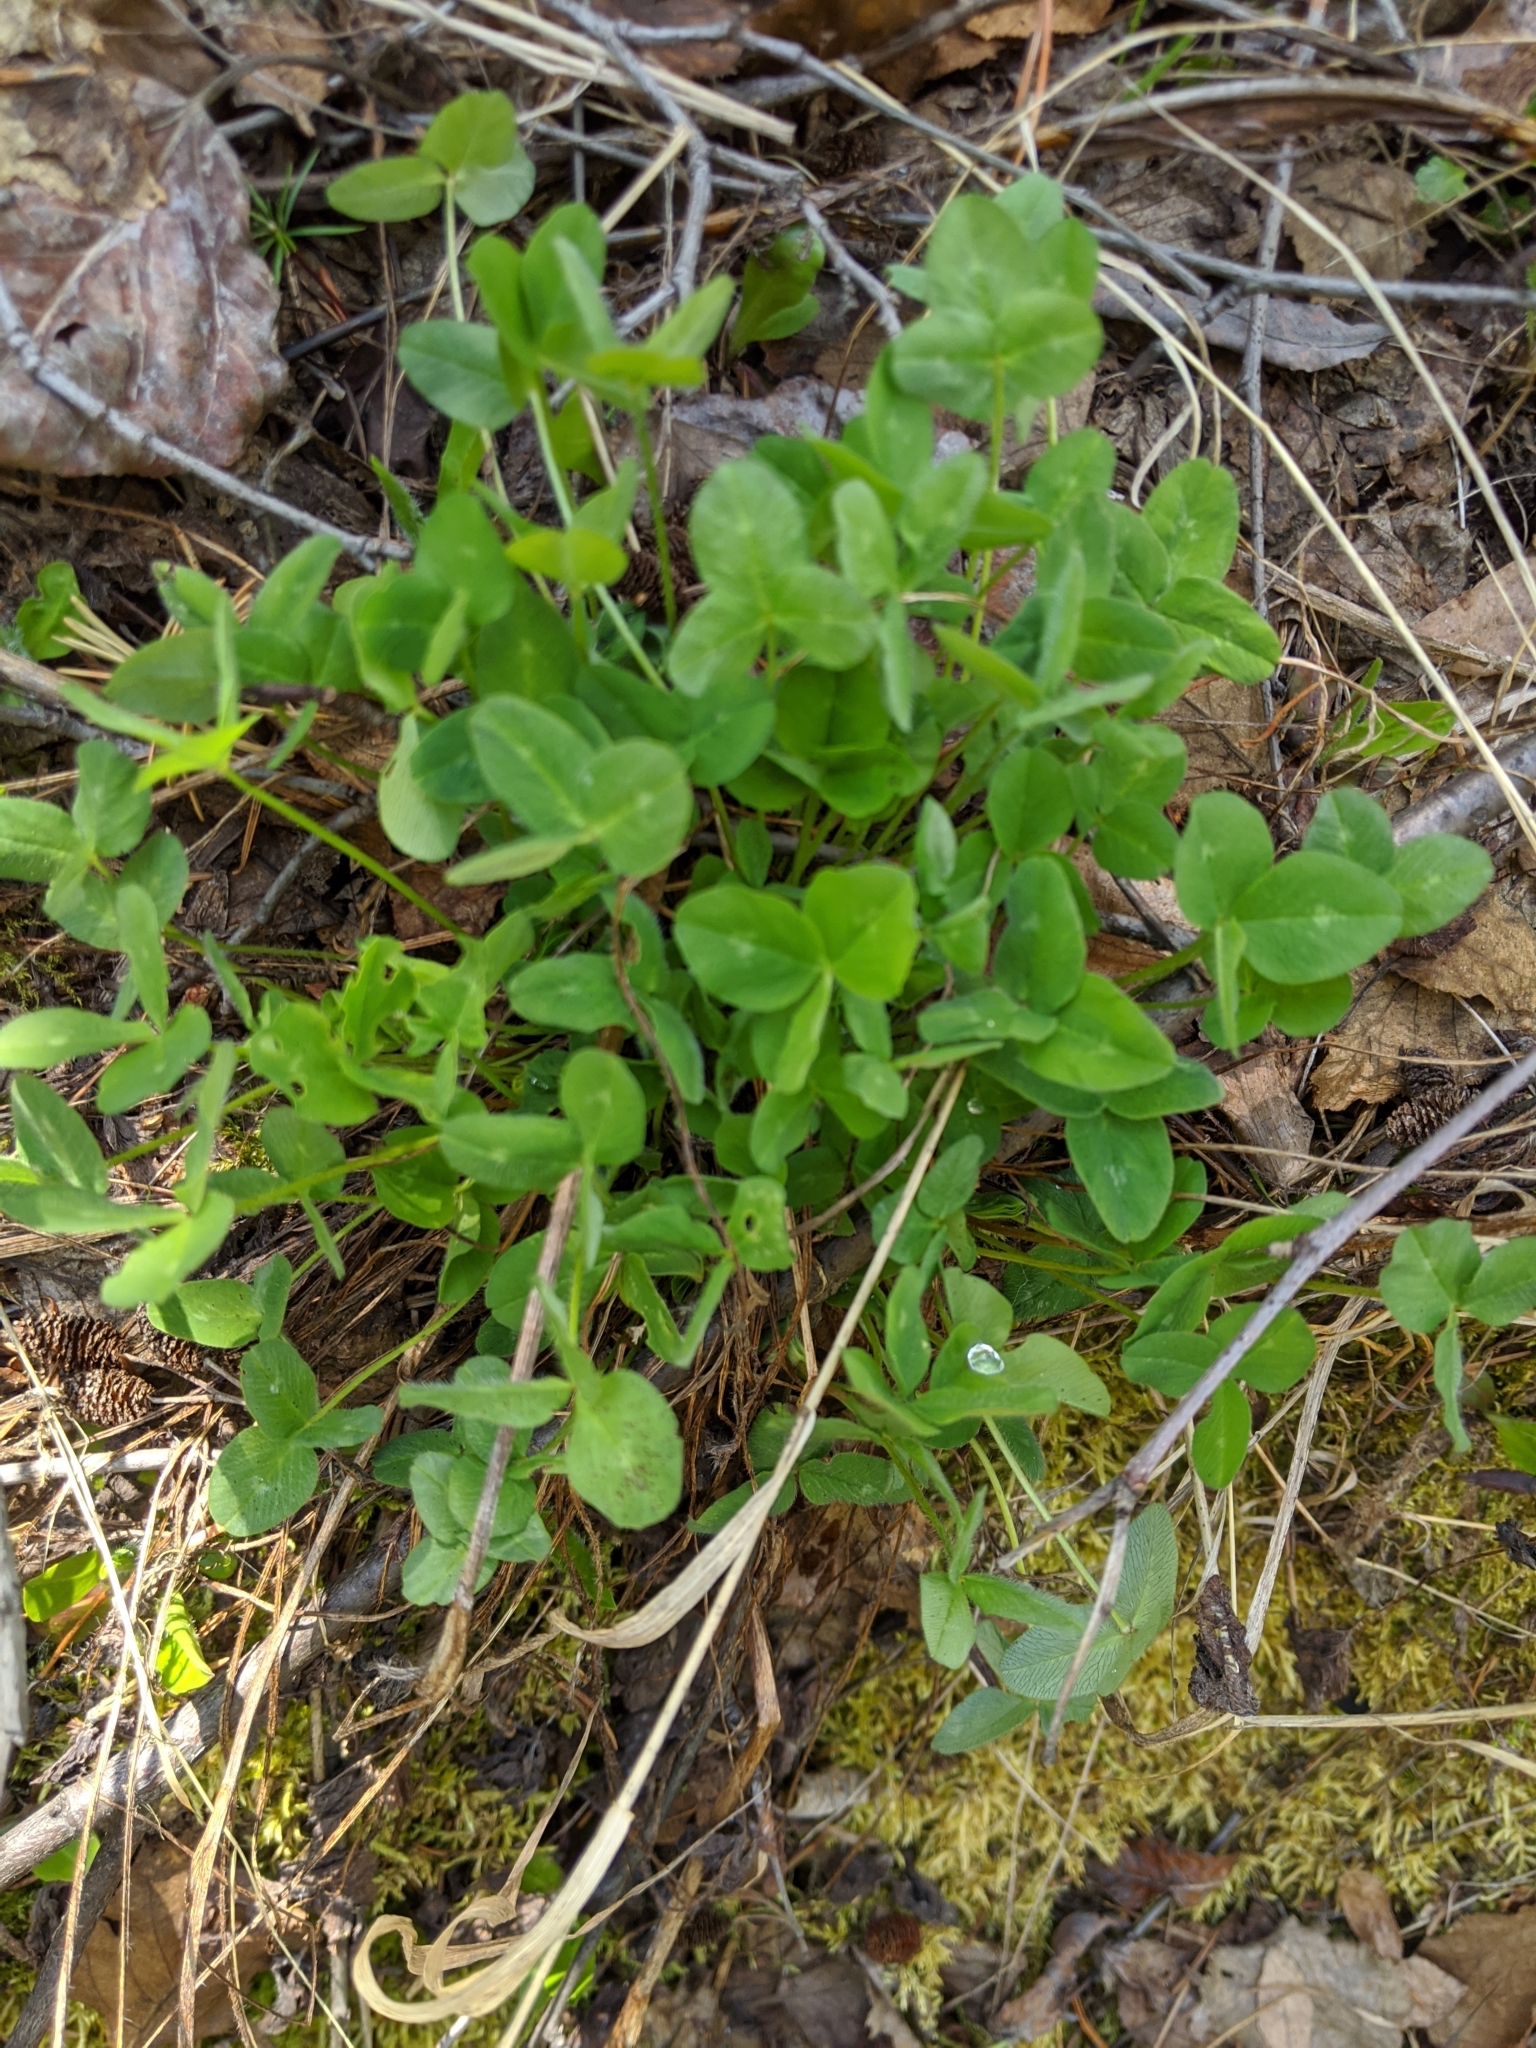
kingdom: Plantae
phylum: Tracheophyta
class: Magnoliopsida
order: Fabales
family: Fabaceae
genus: Trifolium
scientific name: Trifolium pratense
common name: Red clover
